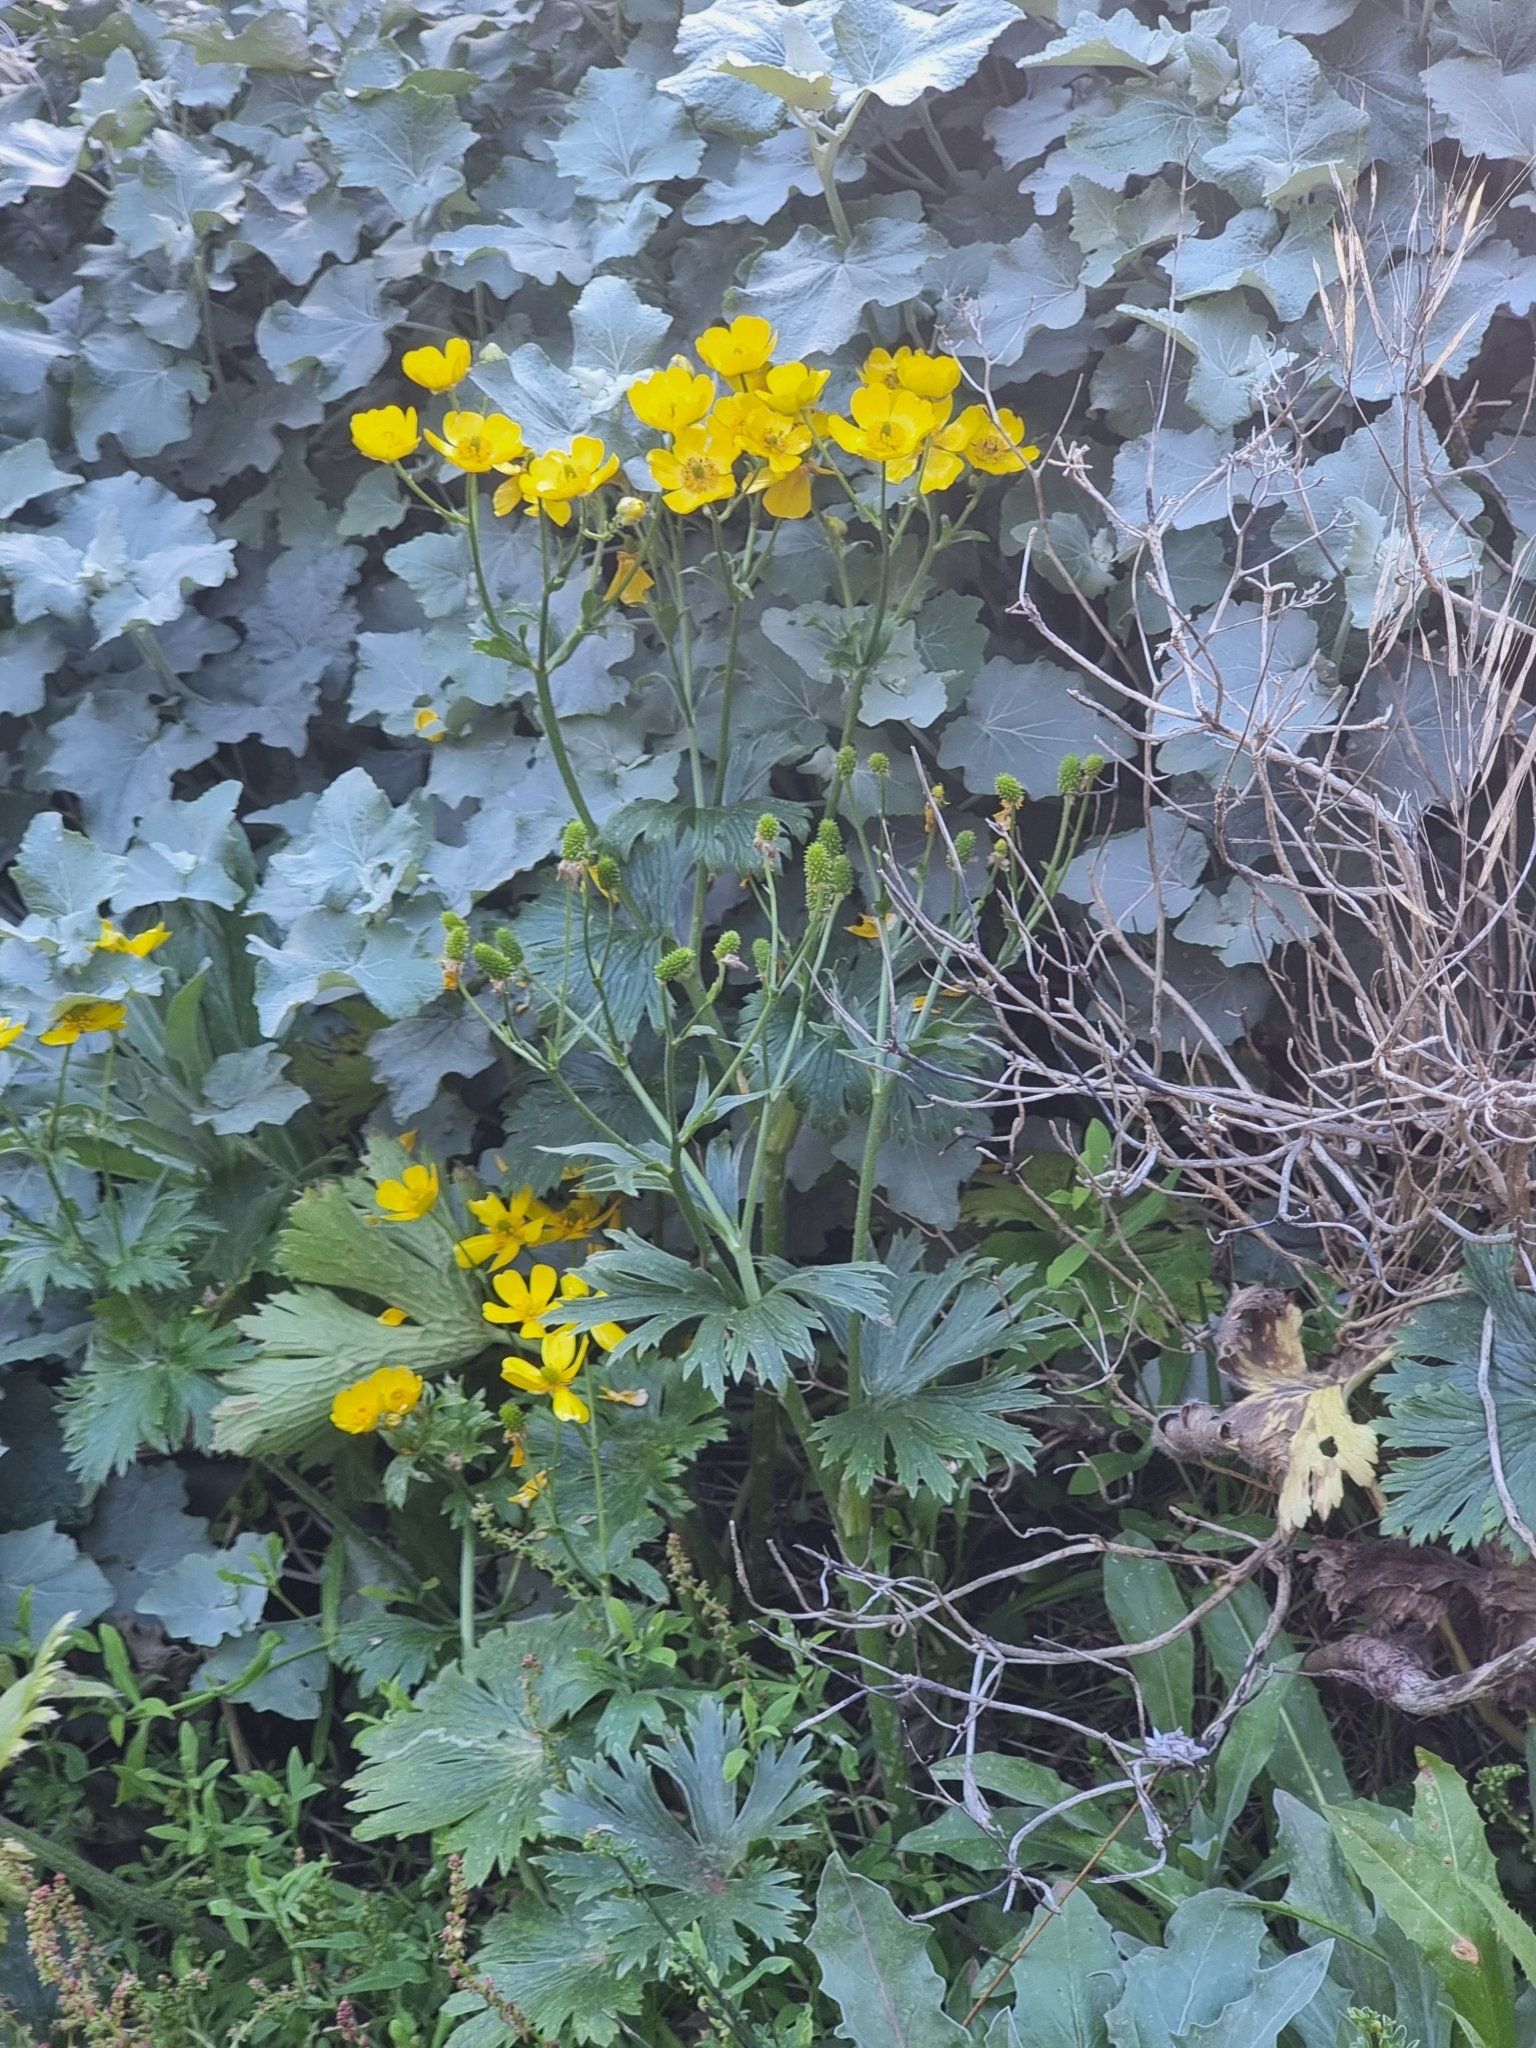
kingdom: Plantae
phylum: Tracheophyta
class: Magnoliopsida
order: Ranunculales
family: Ranunculaceae
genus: Ranunculus
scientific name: Ranunculus cortusifolius
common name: Azores buttercup
